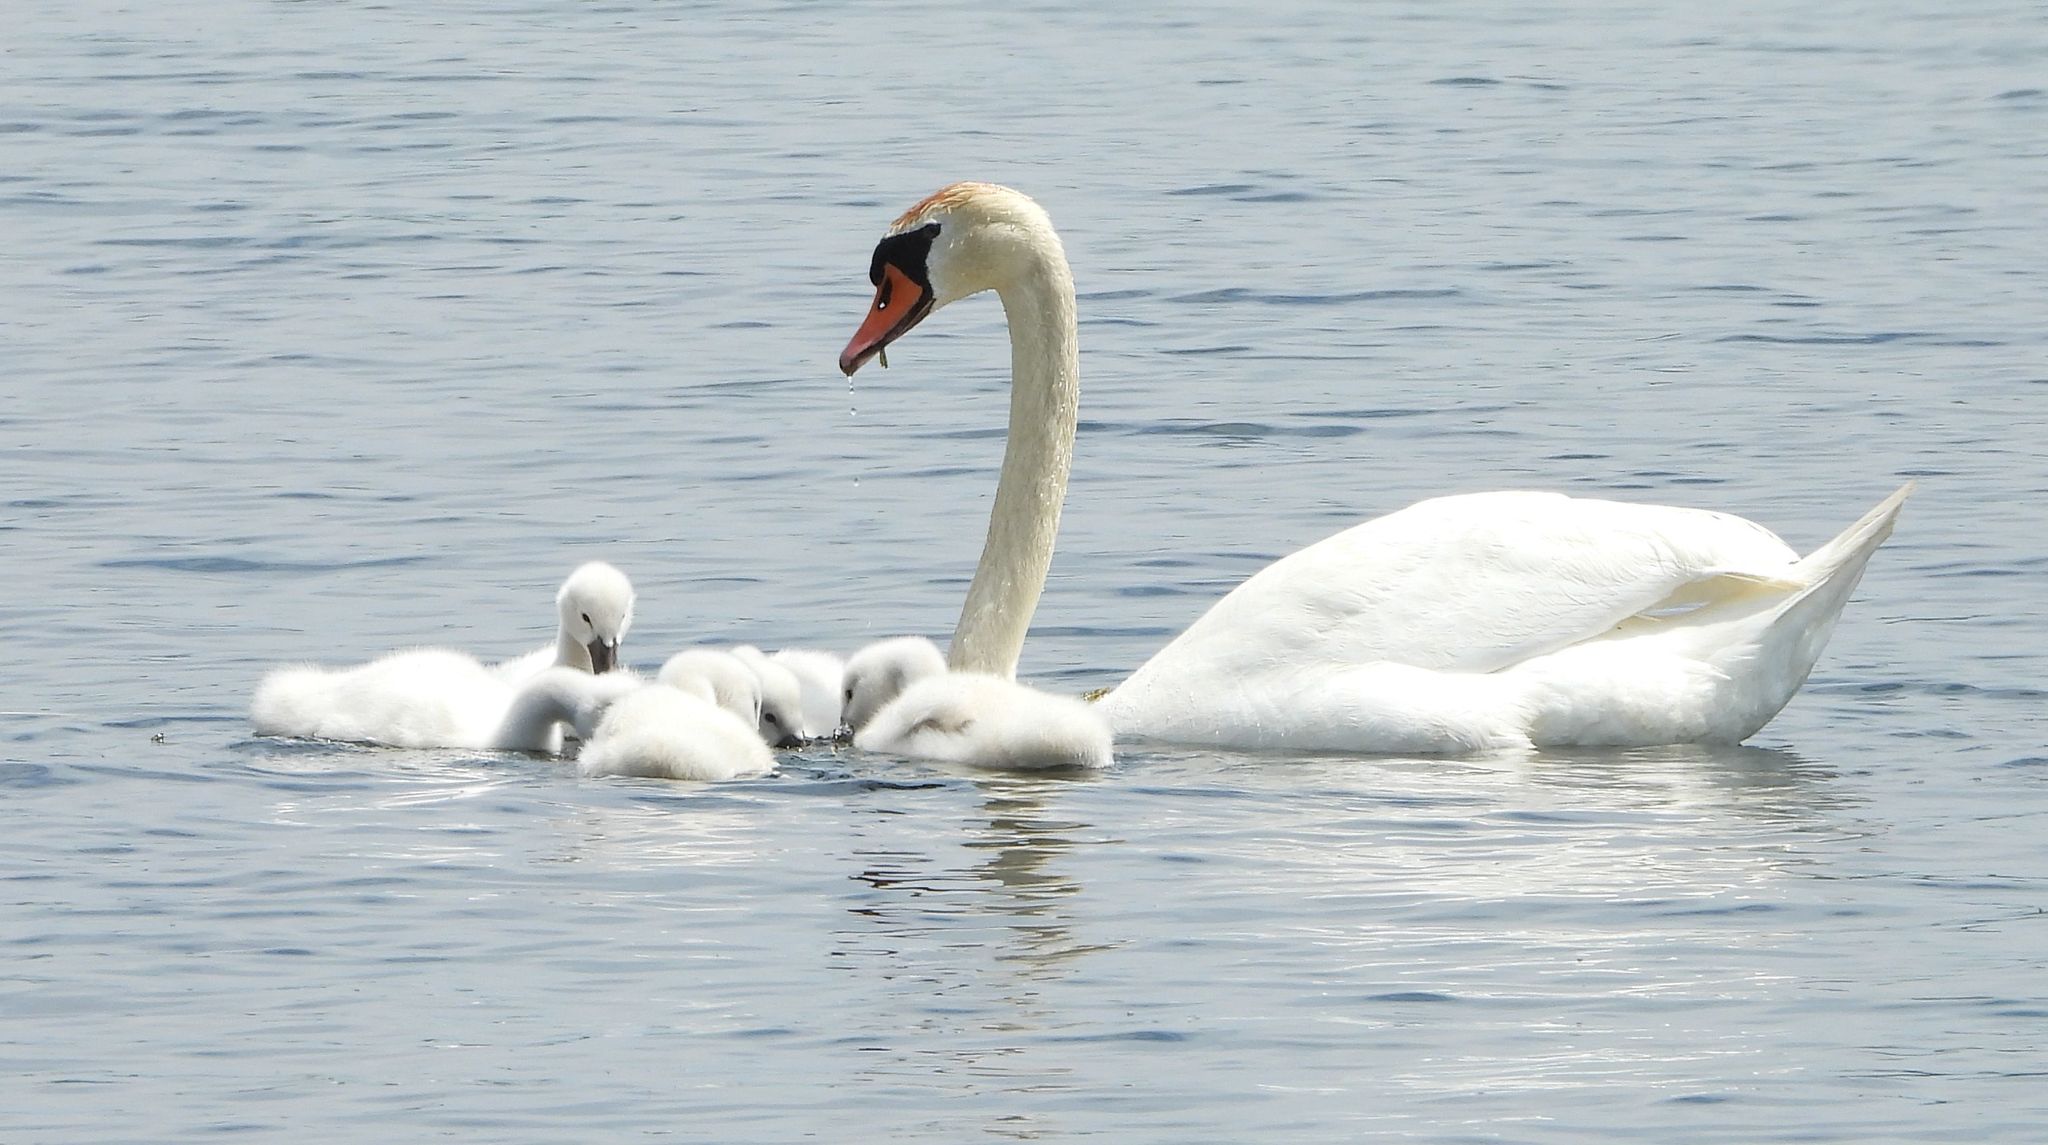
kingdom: Animalia
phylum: Chordata
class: Aves
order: Anseriformes
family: Anatidae
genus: Cygnus
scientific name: Cygnus olor
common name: Mute swan
